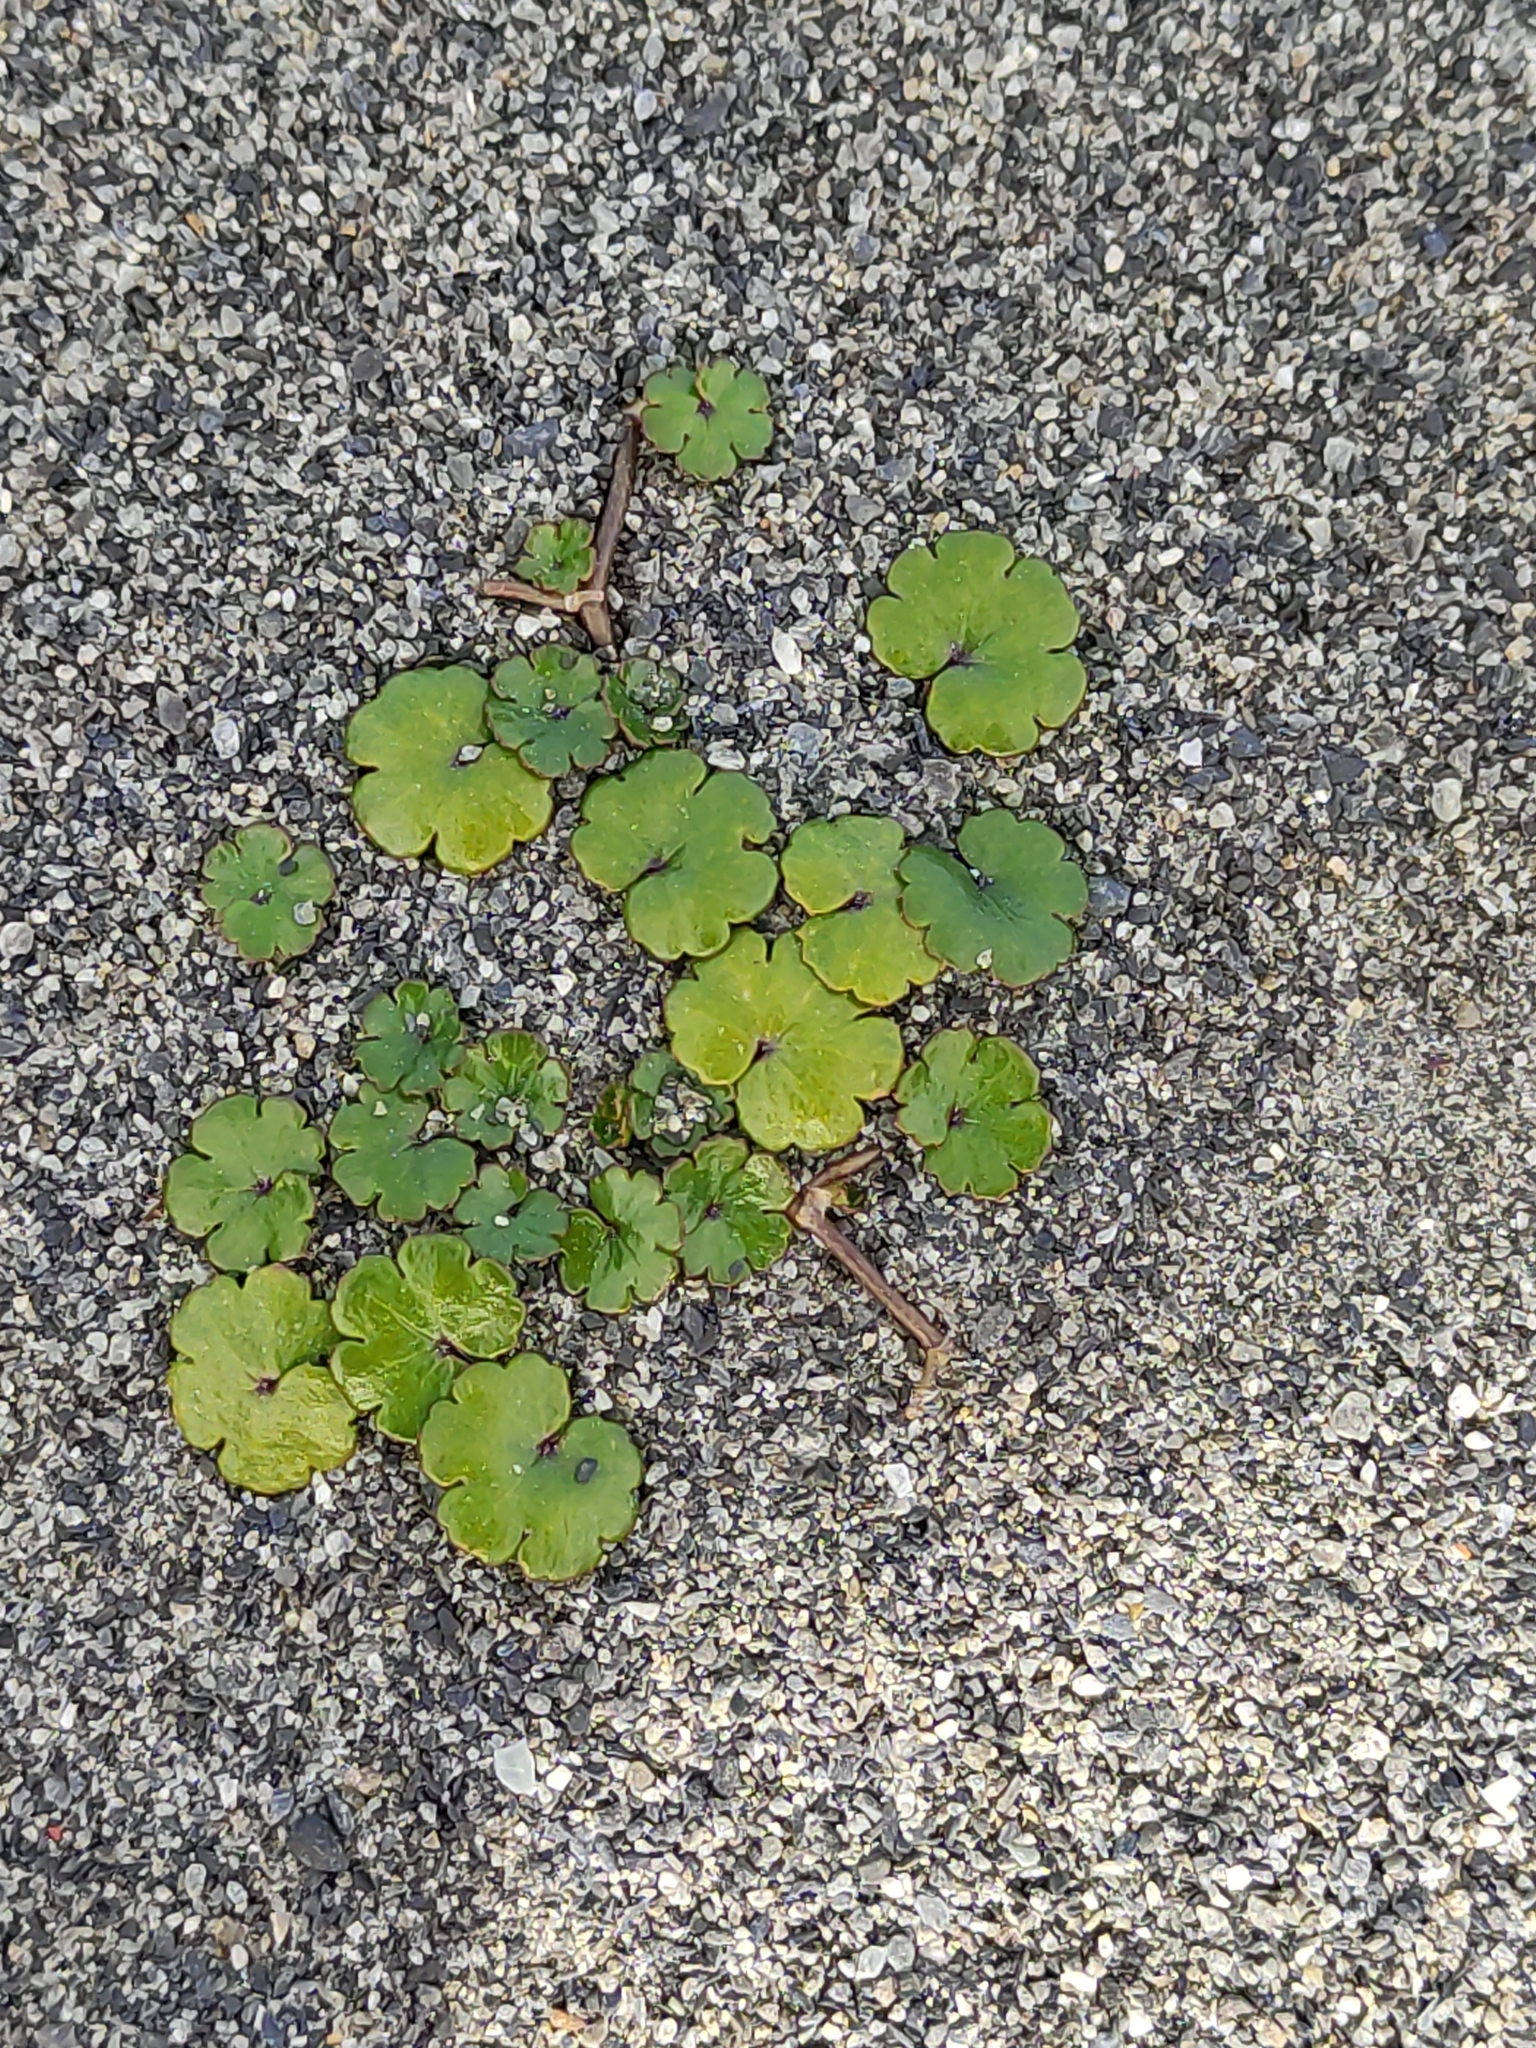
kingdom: Plantae
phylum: Tracheophyta
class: Magnoliopsida
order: Apiales
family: Araliaceae
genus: Hydrocotyle
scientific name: Hydrocotyle novae-zeelandiae
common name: New zealand pennywort
